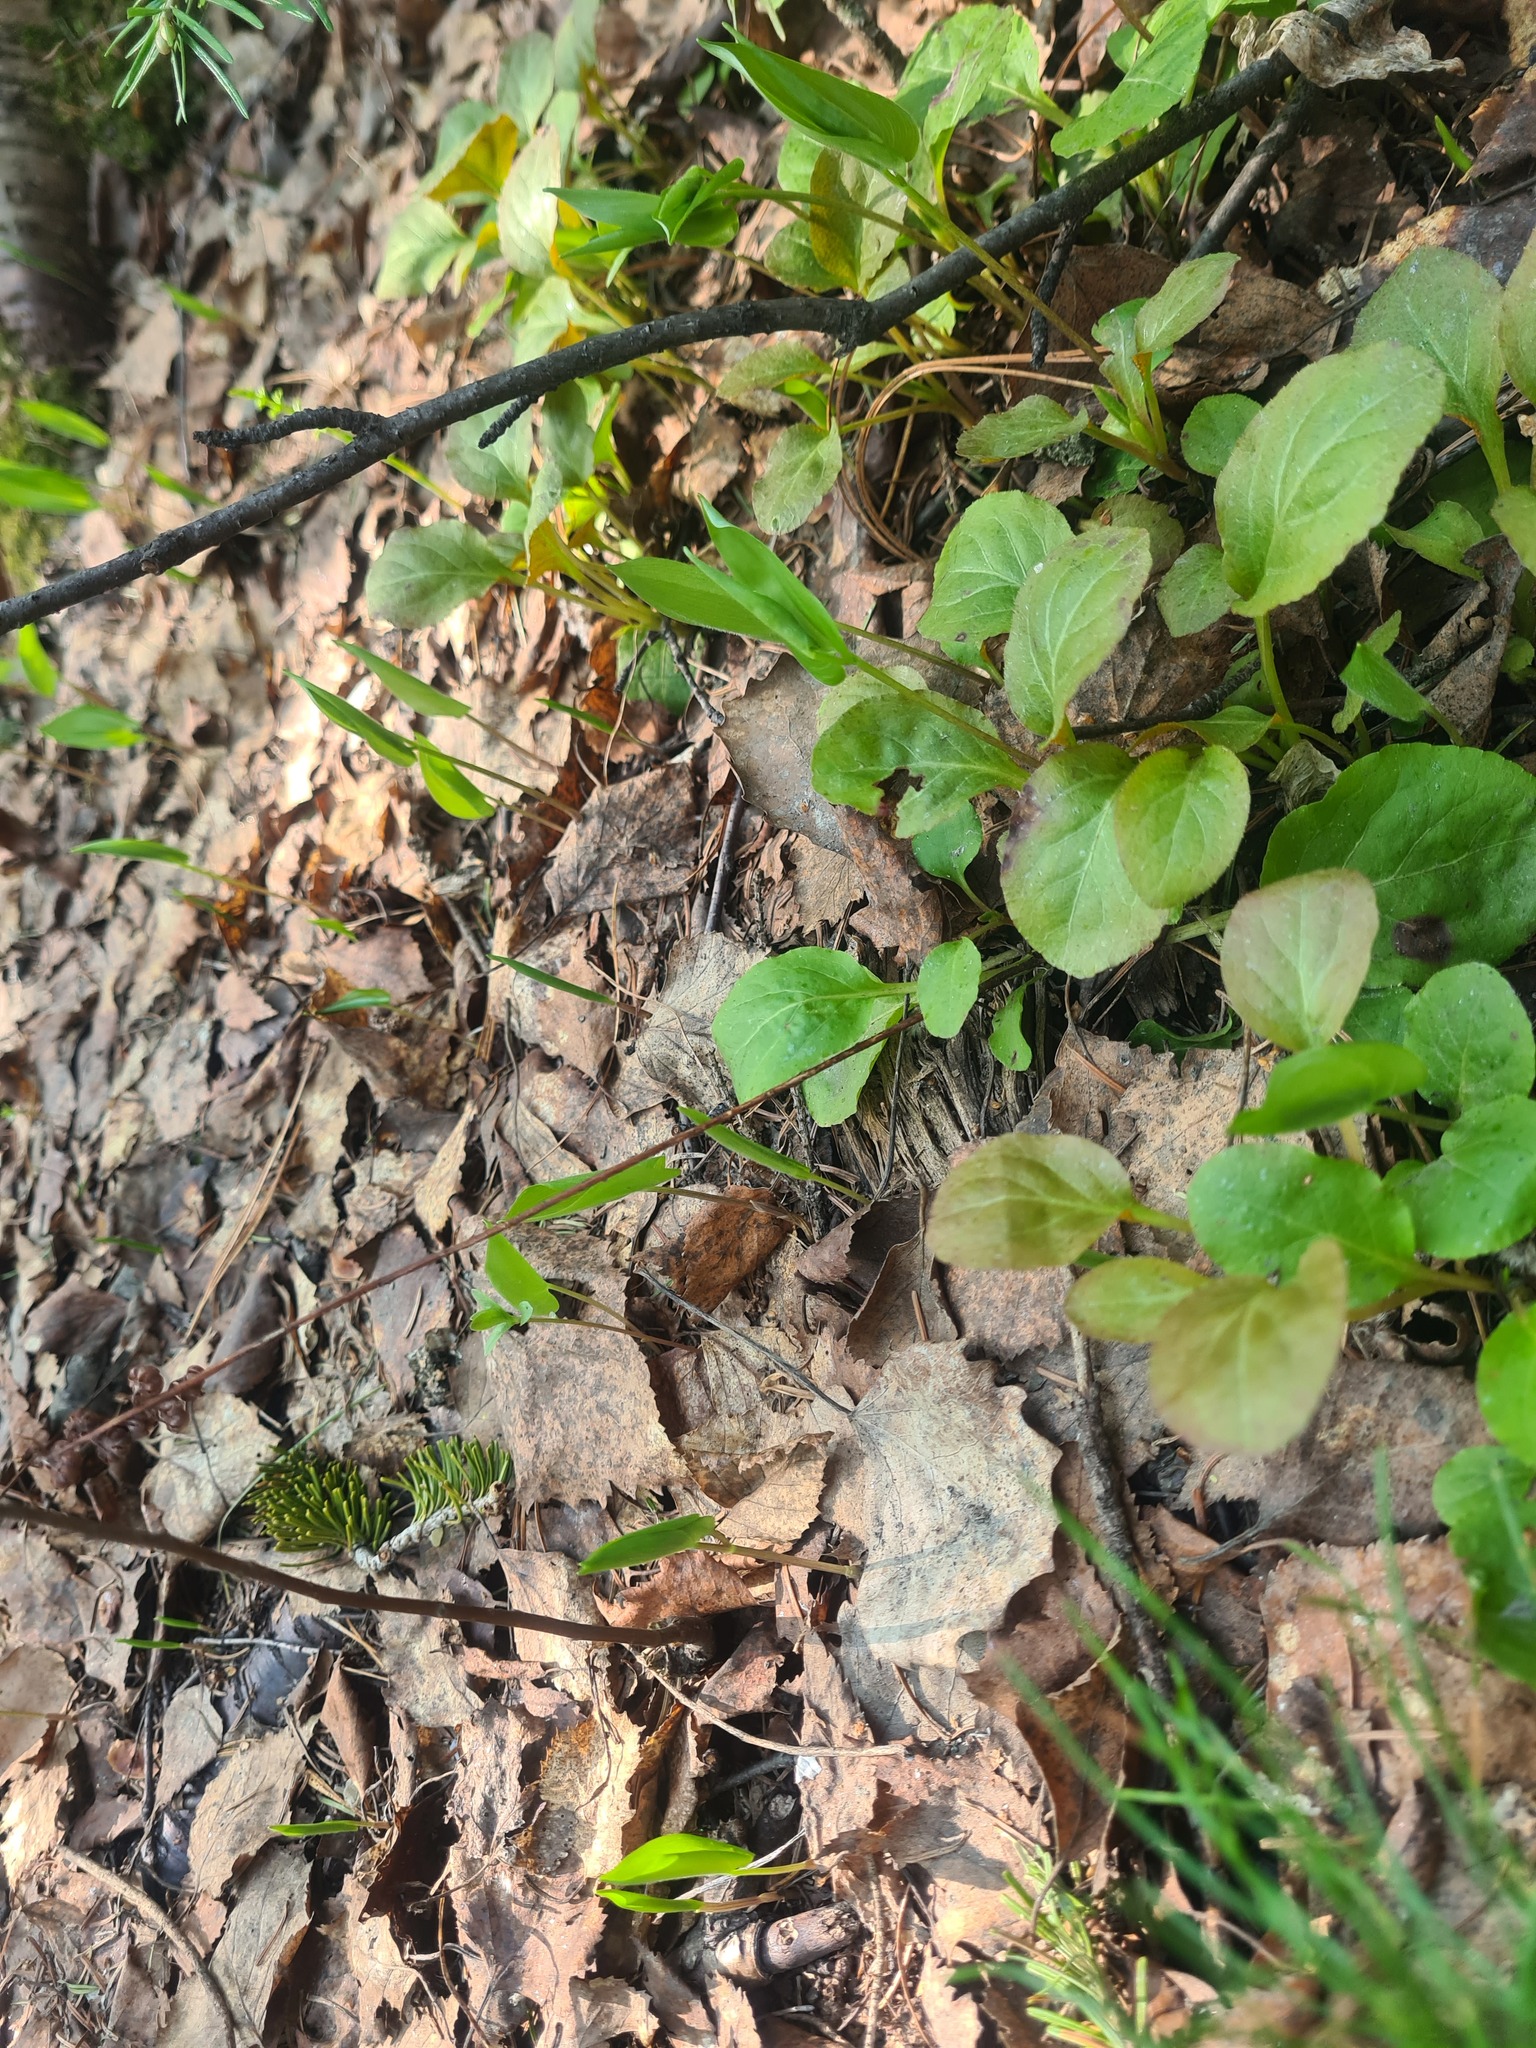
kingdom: Plantae
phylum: Tracheophyta
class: Magnoliopsida
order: Ericales
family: Ericaceae
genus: Pyrola
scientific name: Pyrola minor
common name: Common wintergreen
